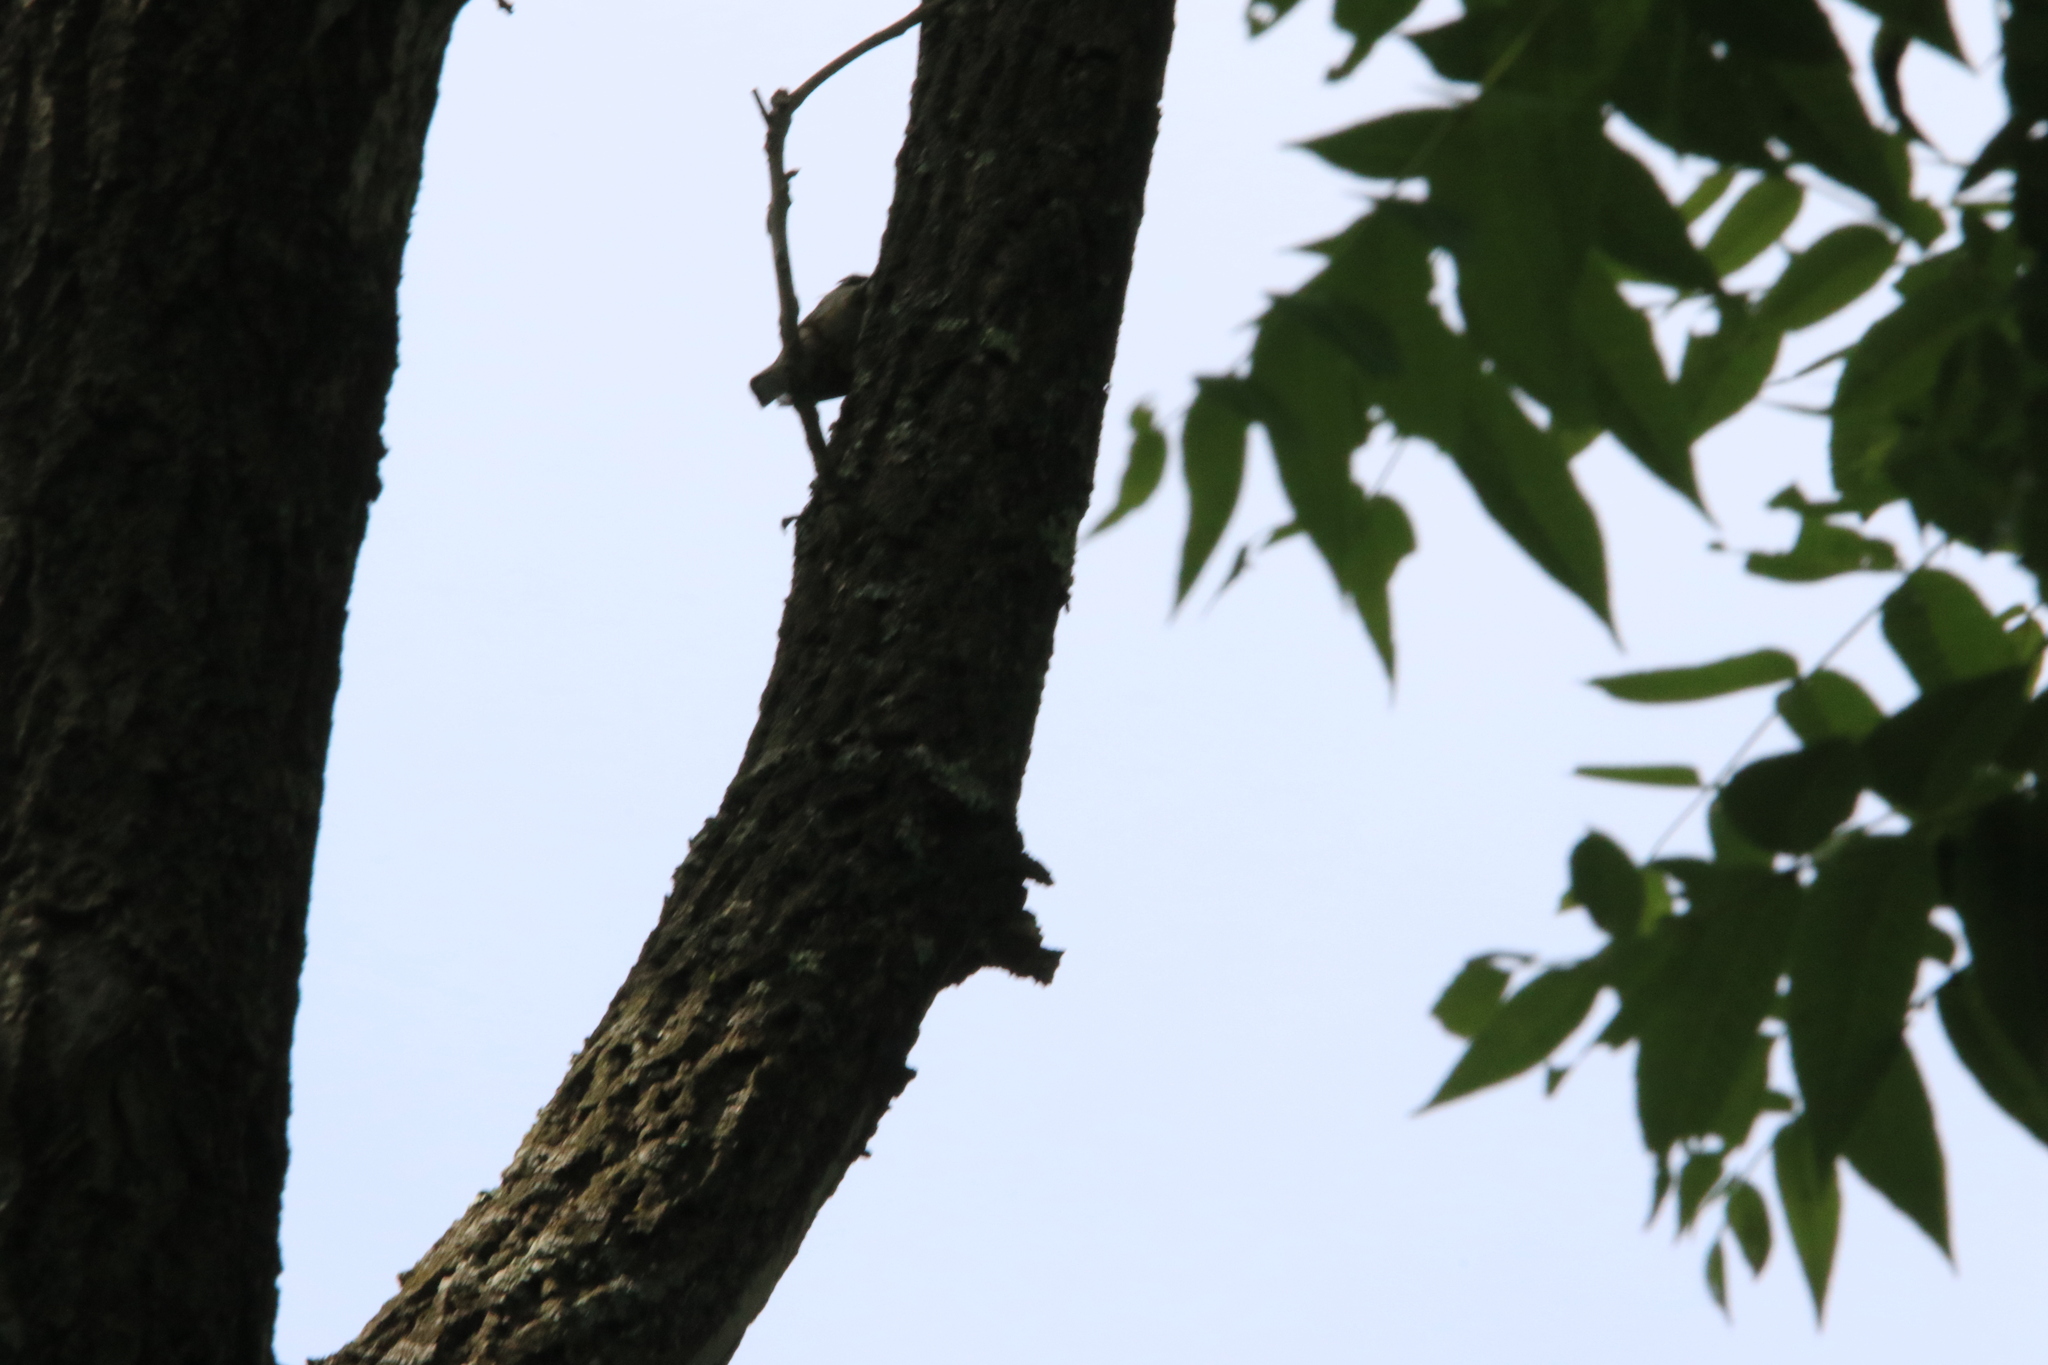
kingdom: Animalia
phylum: Chordata
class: Aves
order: Passeriformes
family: Sittidae
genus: Sitta
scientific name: Sitta carolinensis
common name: White-breasted nuthatch
